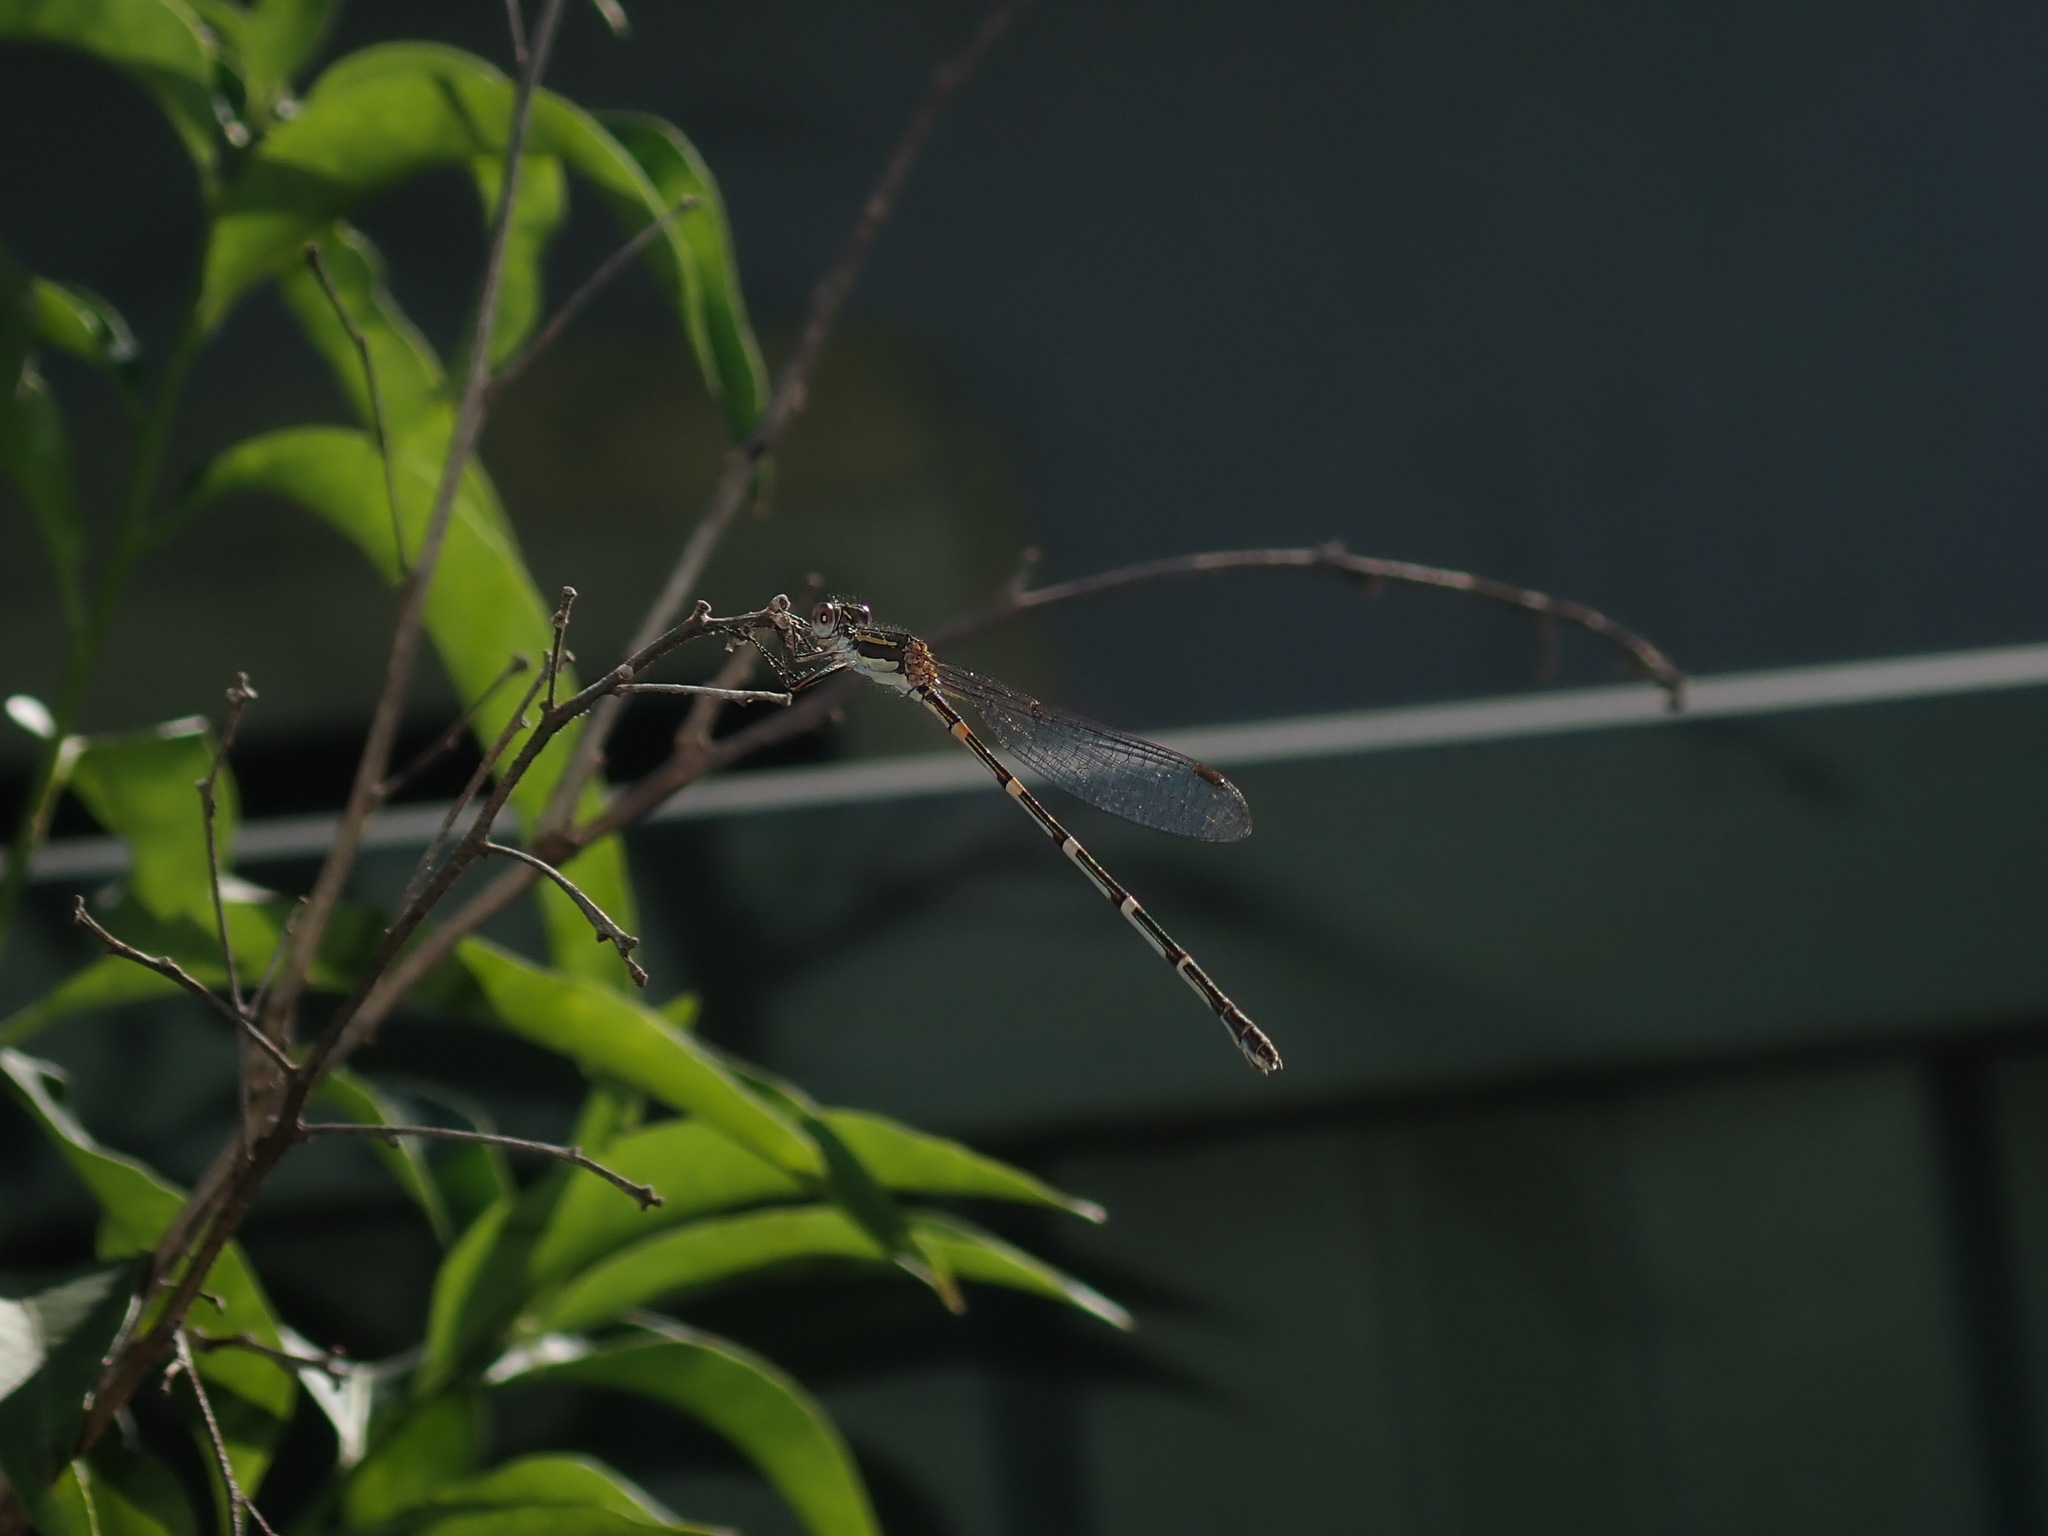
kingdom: Animalia
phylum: Arthropoda
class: Insecta
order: Odonata
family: Lestidae
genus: Austrolestes
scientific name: Austrolestes leda
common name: Wandering ringtail
